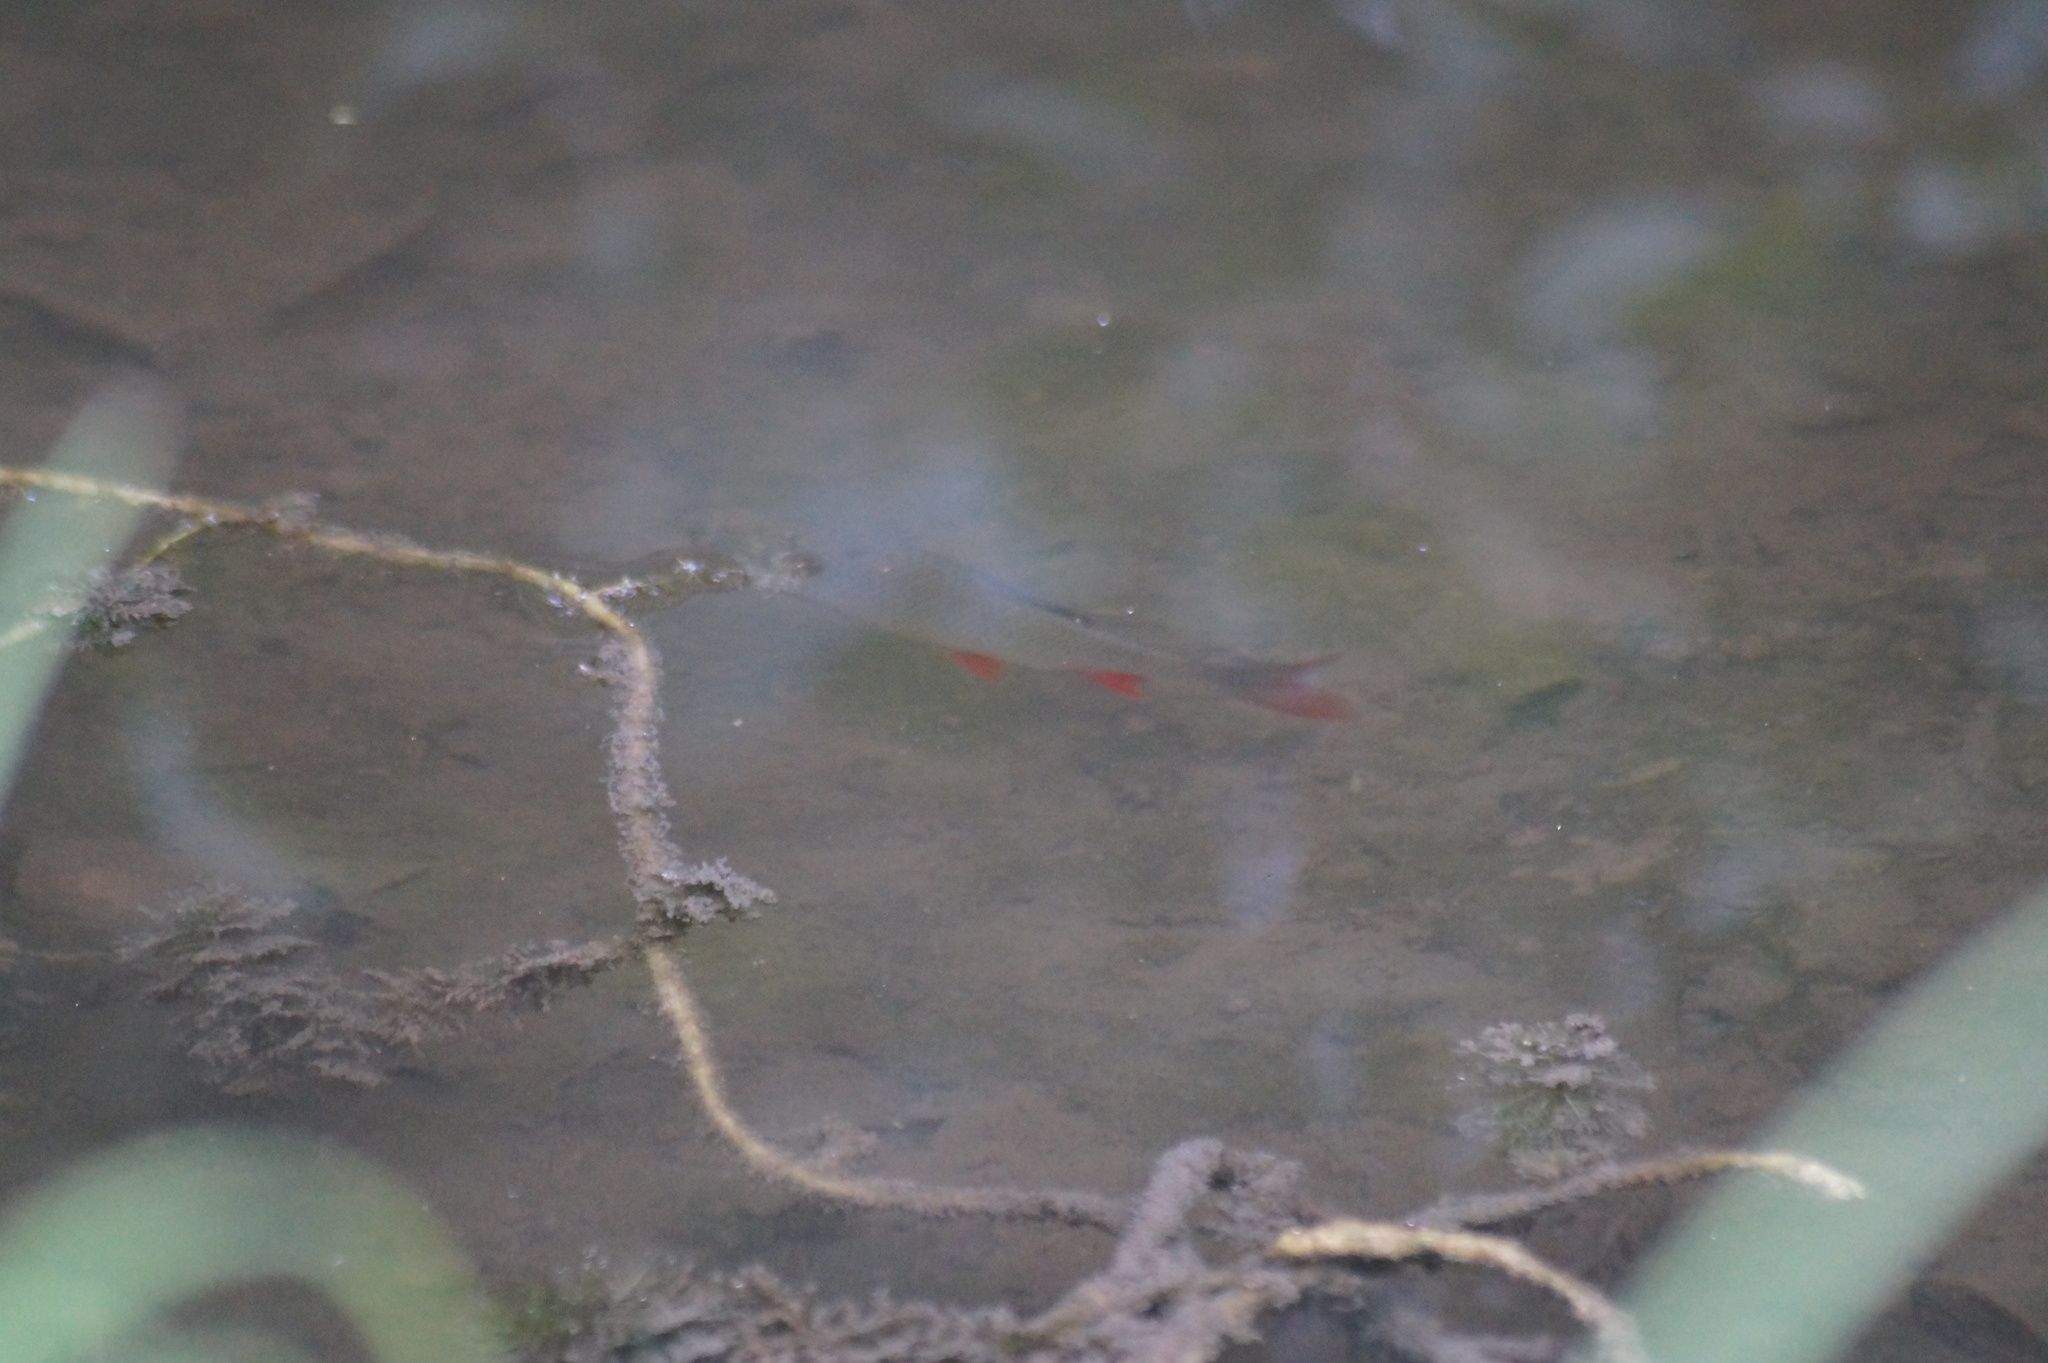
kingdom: Animalia
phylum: Chordata
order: Cypriniformes
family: Cyprinidae
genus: Scardinius
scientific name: Scardinius erythrophthalmus
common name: Rudd
